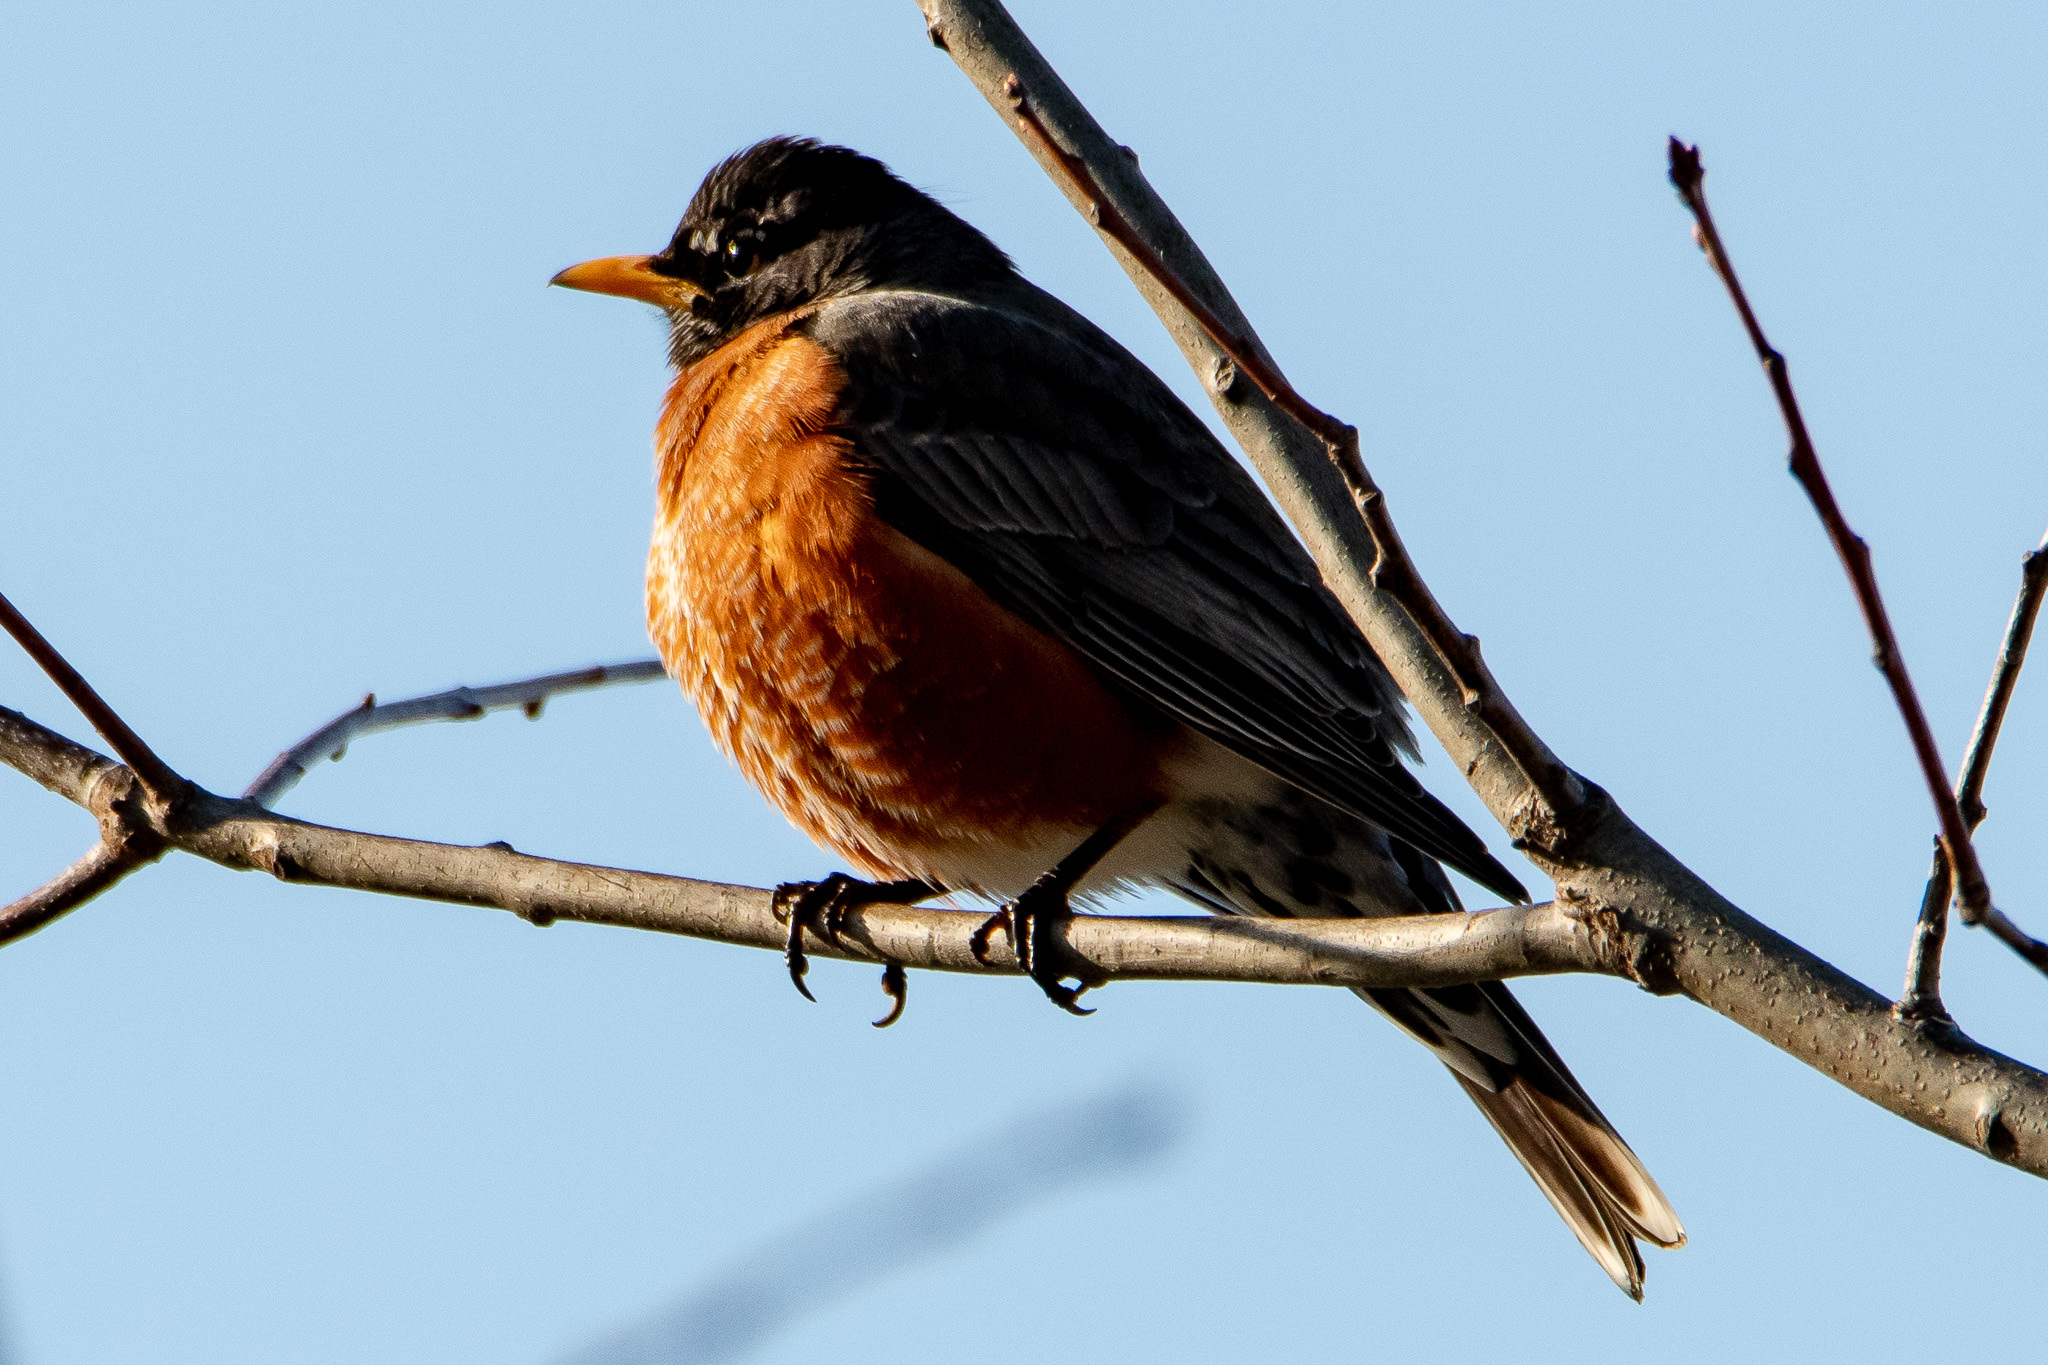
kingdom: Animalia
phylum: Chordata
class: Aves
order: Passeriformes
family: Turdidae
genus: Turdus
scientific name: Turdus migratorius
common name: American robin
